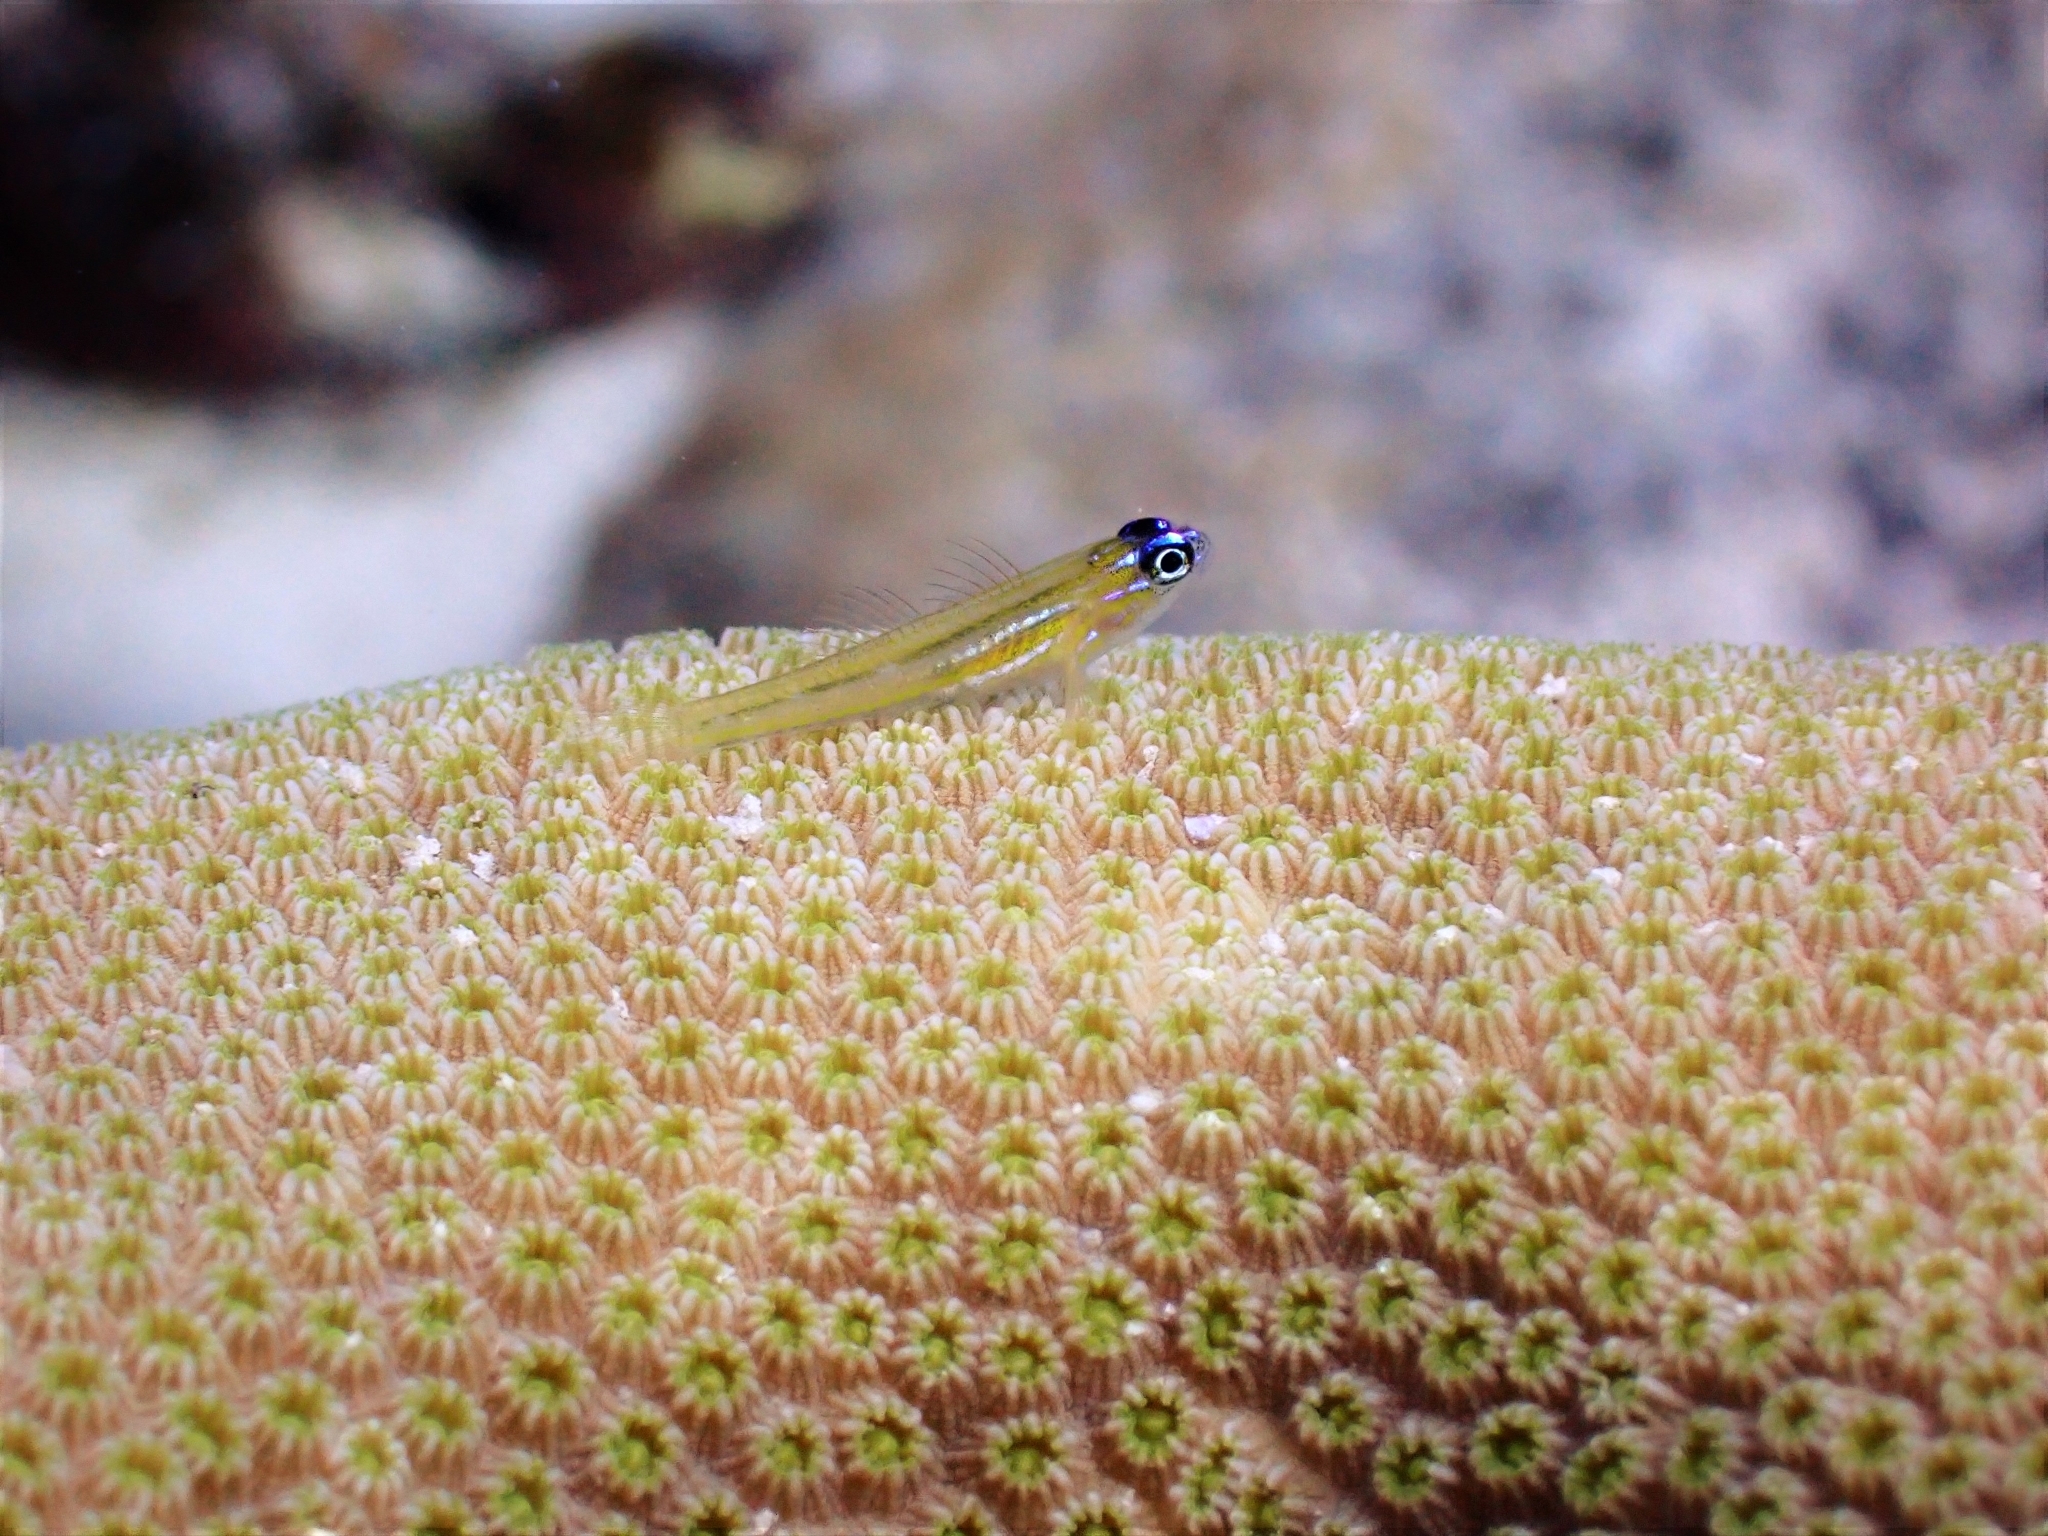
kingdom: Animalia
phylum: Chordata
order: Perciformes
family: Gobiidae
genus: Coryphopterus
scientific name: Coryphopterus lipernes
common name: Peppermint goby
